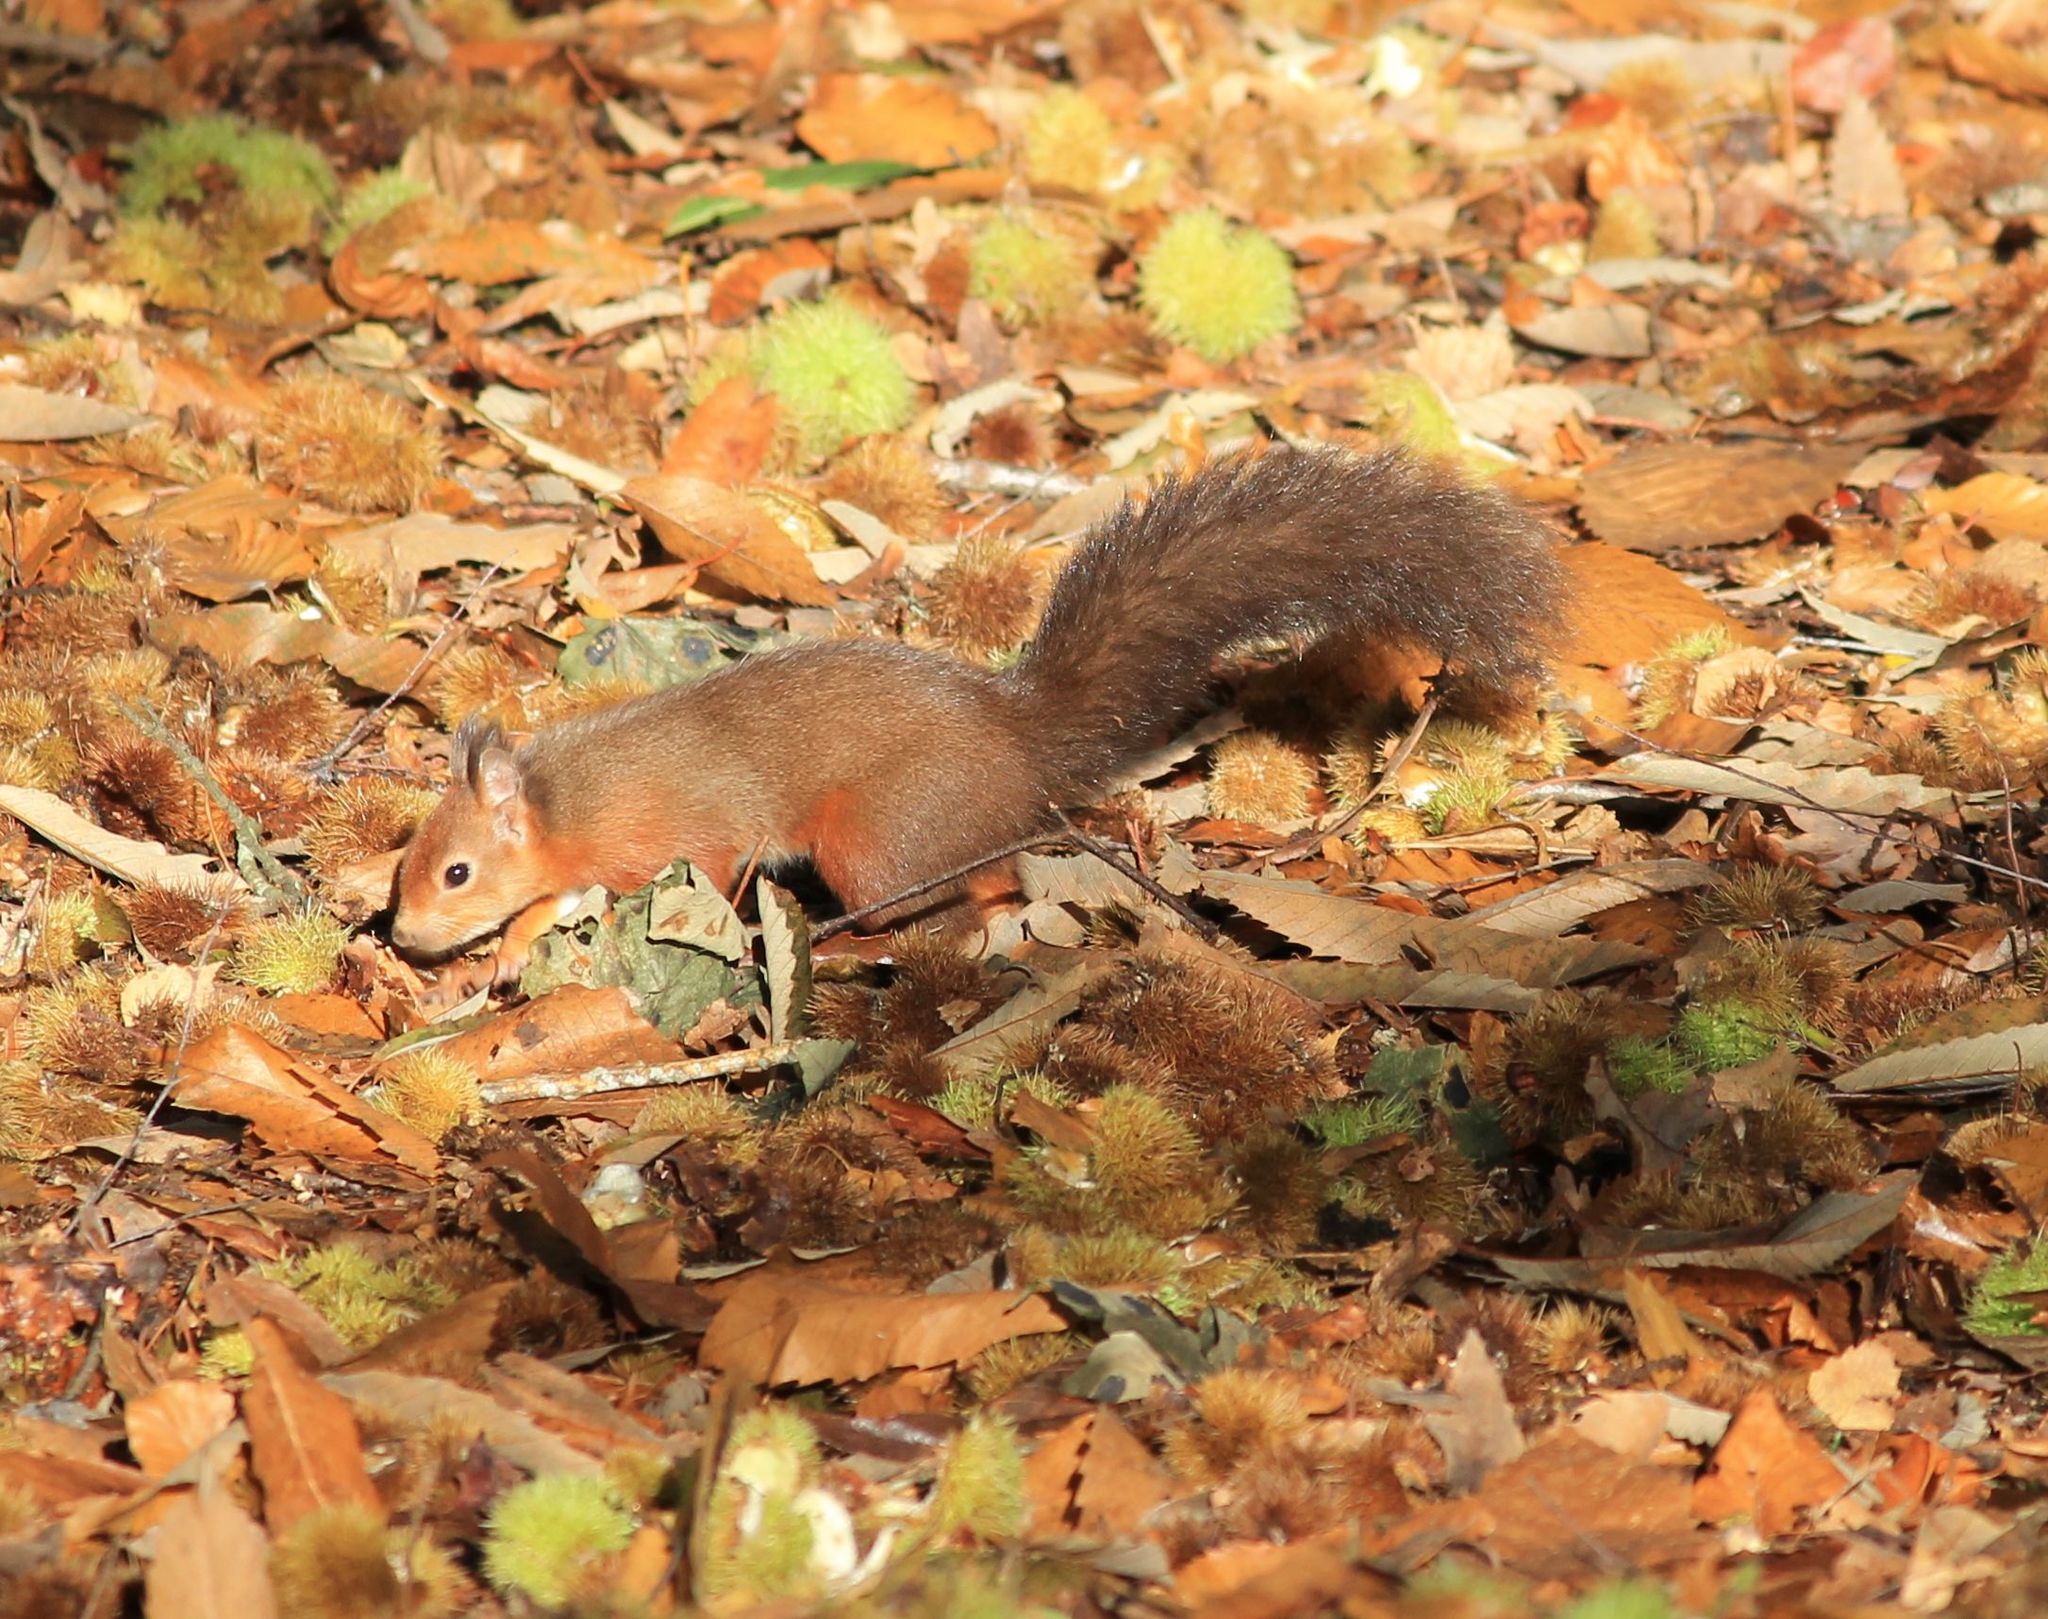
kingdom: Animalia
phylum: Chordata
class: Mammalia
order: Rodentia
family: Sciuridae
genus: Sciurus
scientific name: Sciurus vulgaris
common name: Eurasian red squirrel
